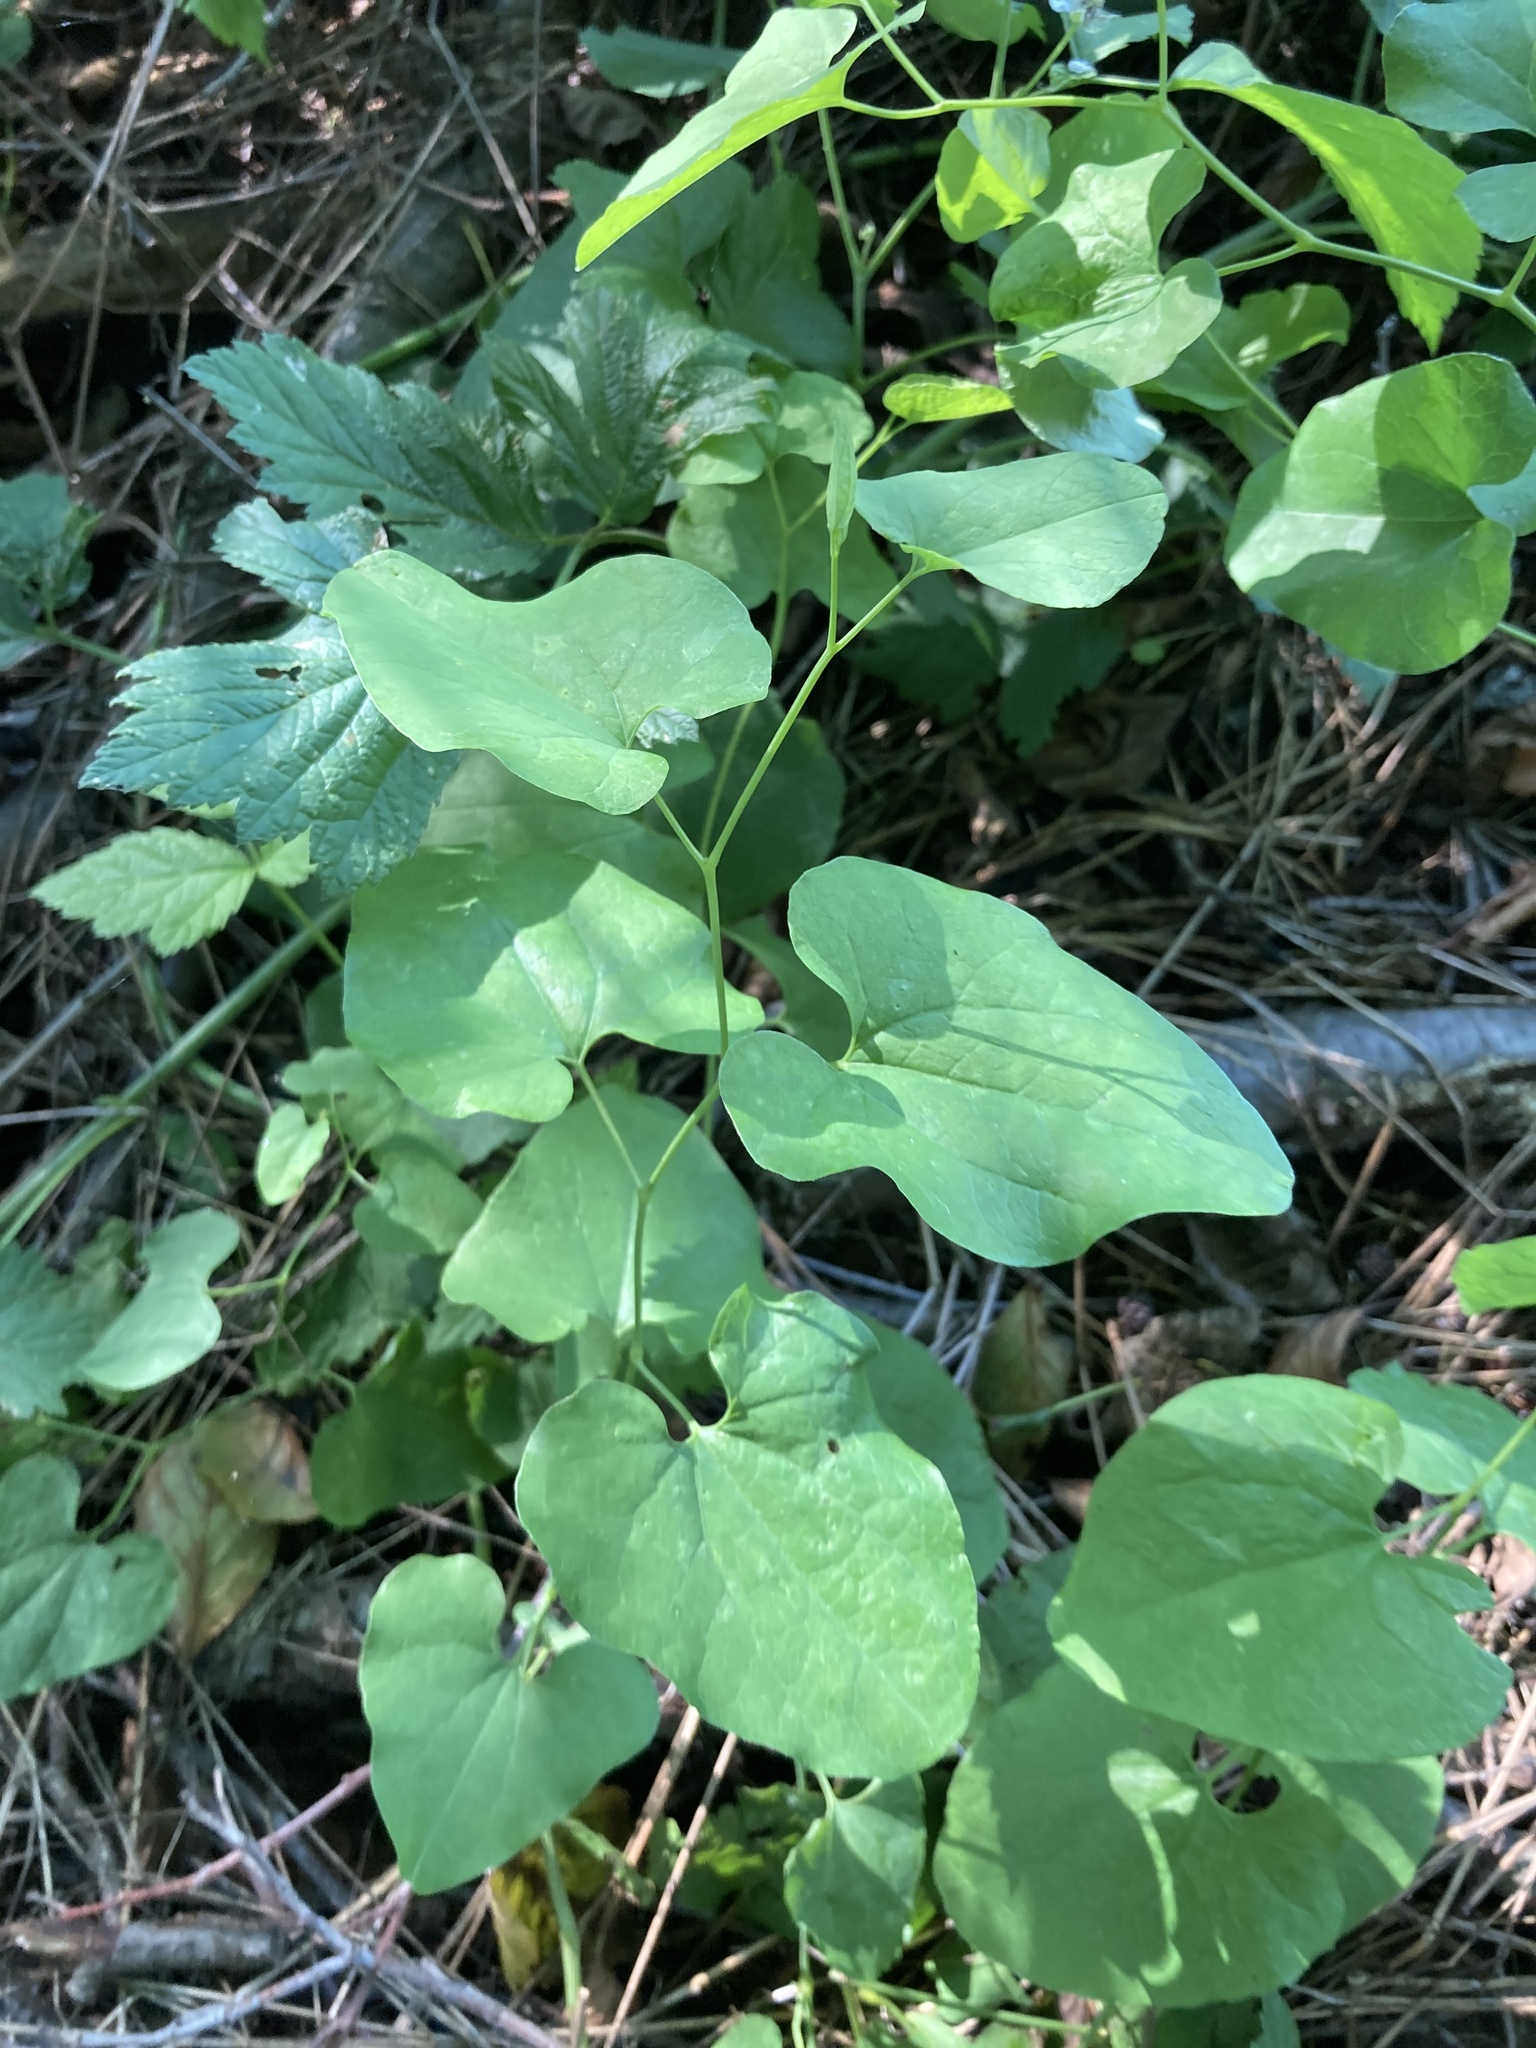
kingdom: Plantae
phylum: Tracheophyta
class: Magnoliopsida
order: Piperales
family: Aristolochiaceae
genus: Aristolochia
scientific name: Aristolochia clematitis
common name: Birthwort
